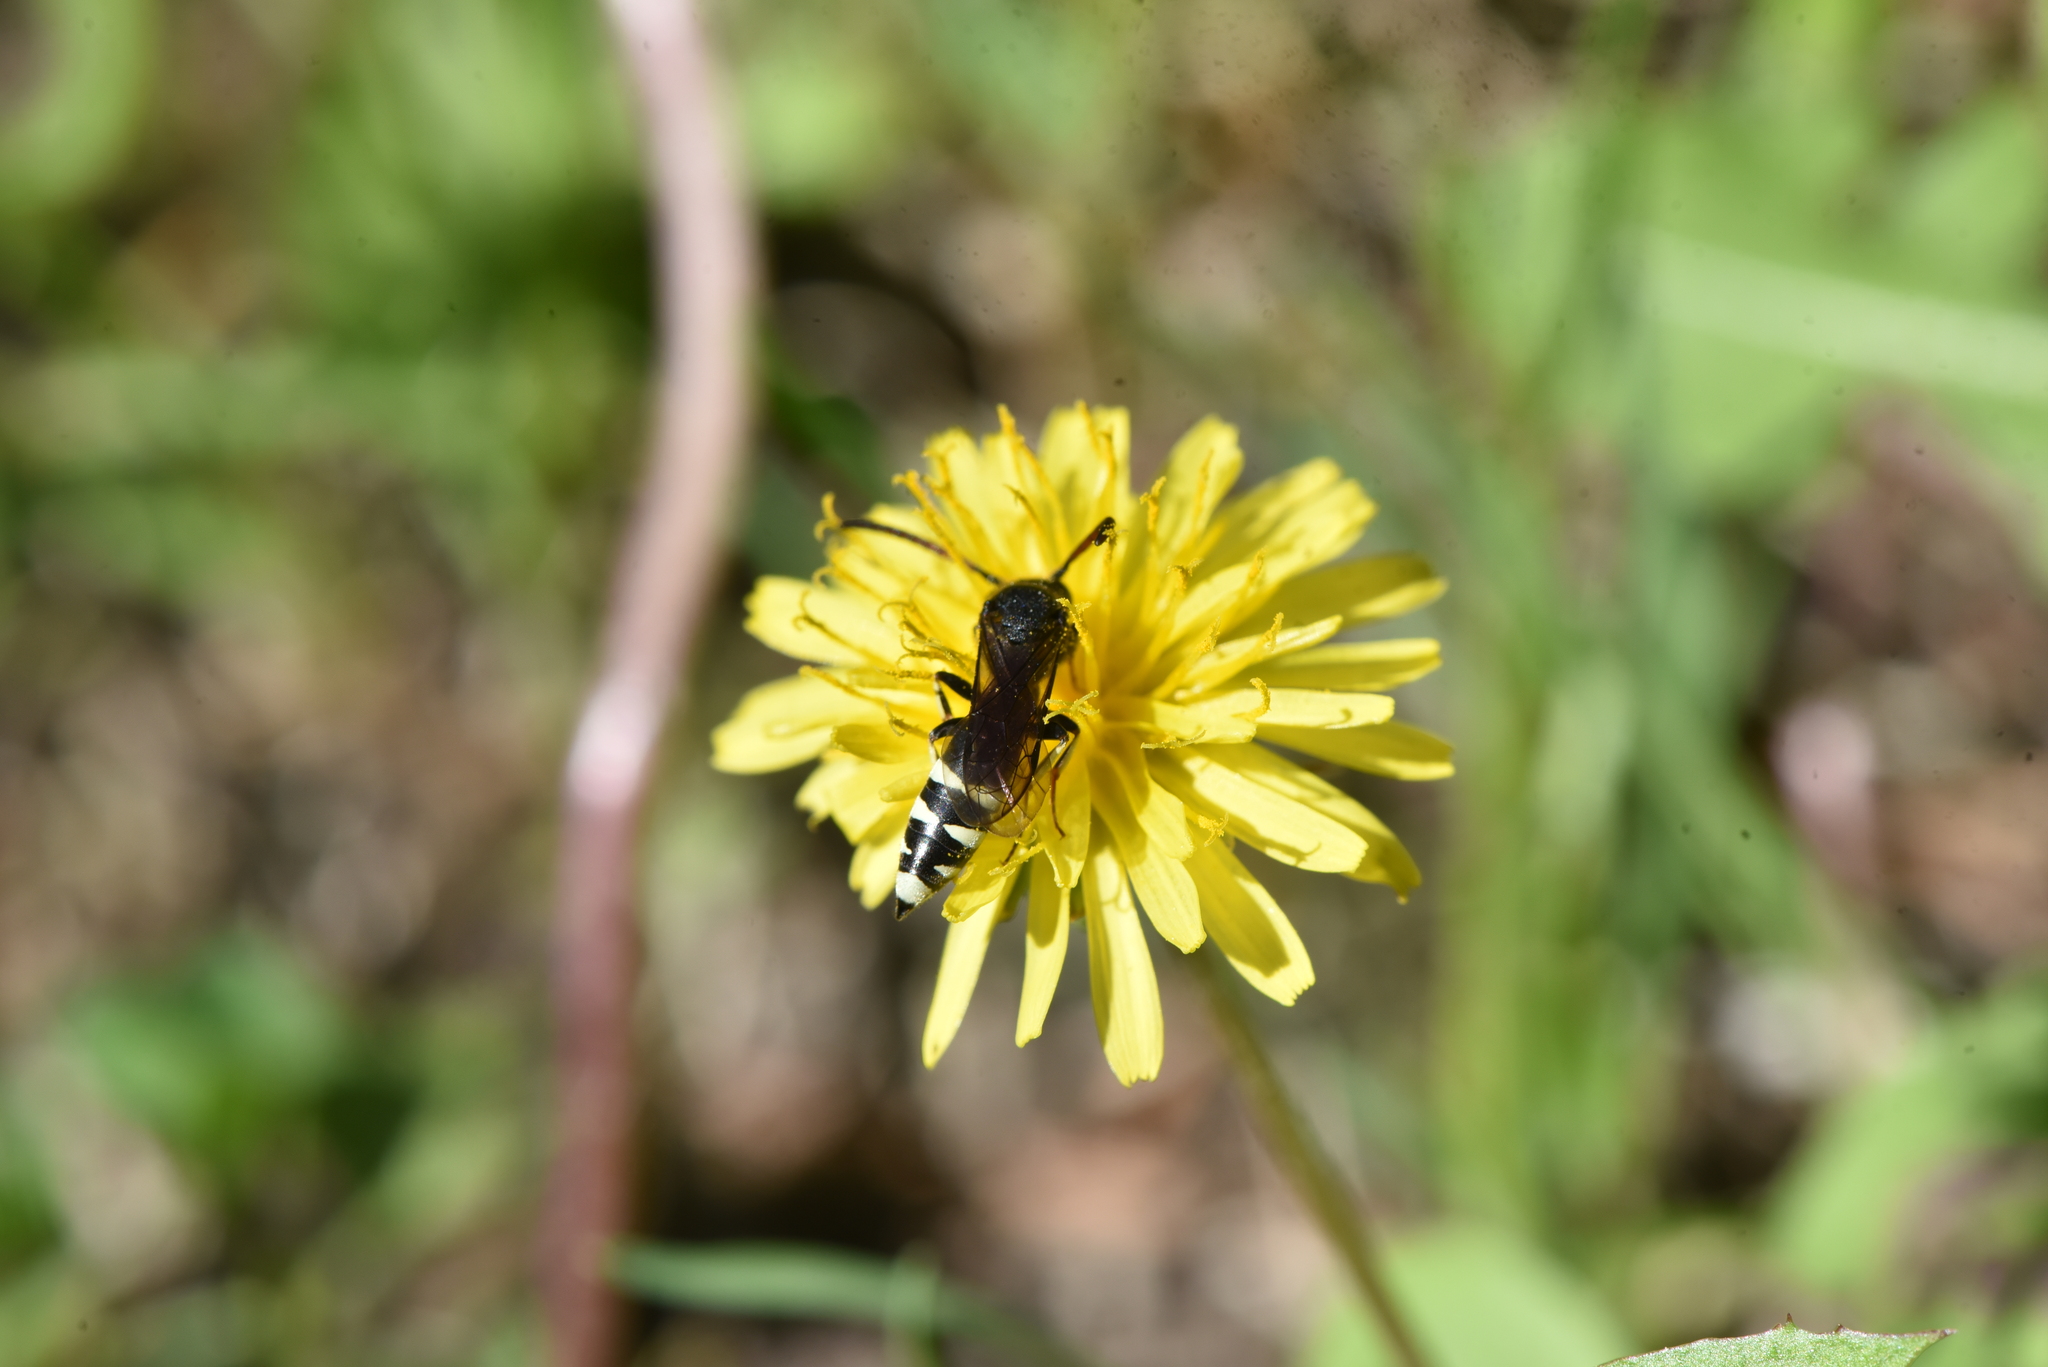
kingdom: Animalia
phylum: Arthropoda
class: Insecta
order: Hymenoptera
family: Sapygidae
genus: Sapyga
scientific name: Sapyga
